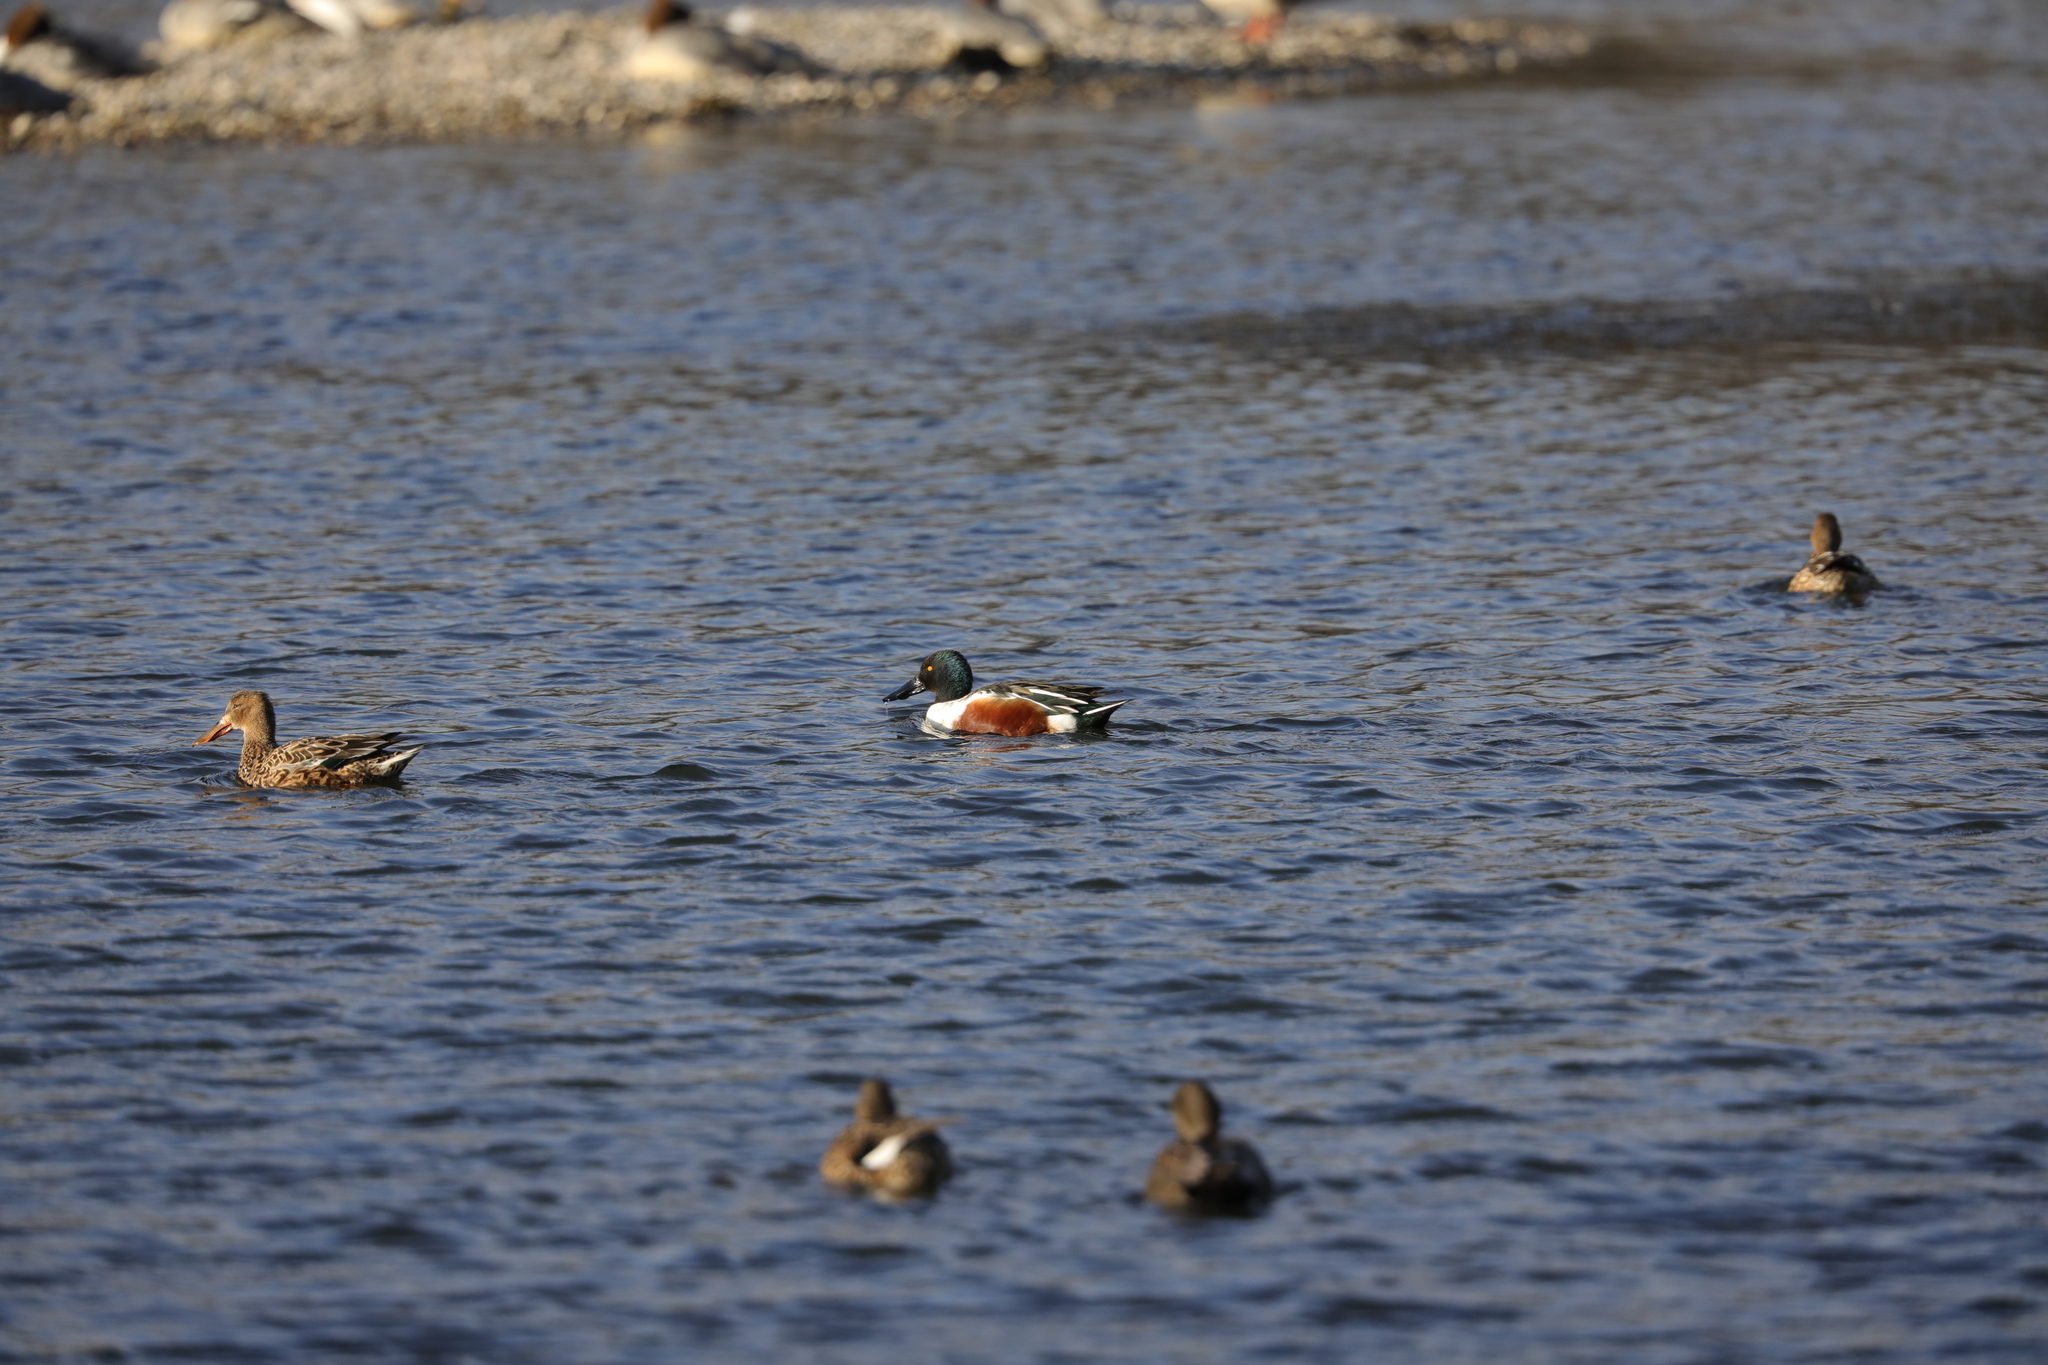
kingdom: Animalia
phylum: Chordata
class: Aves
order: Anseriformes
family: Anatidae
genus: Spatula
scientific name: Spatula clypeata
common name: Northern shoveler
